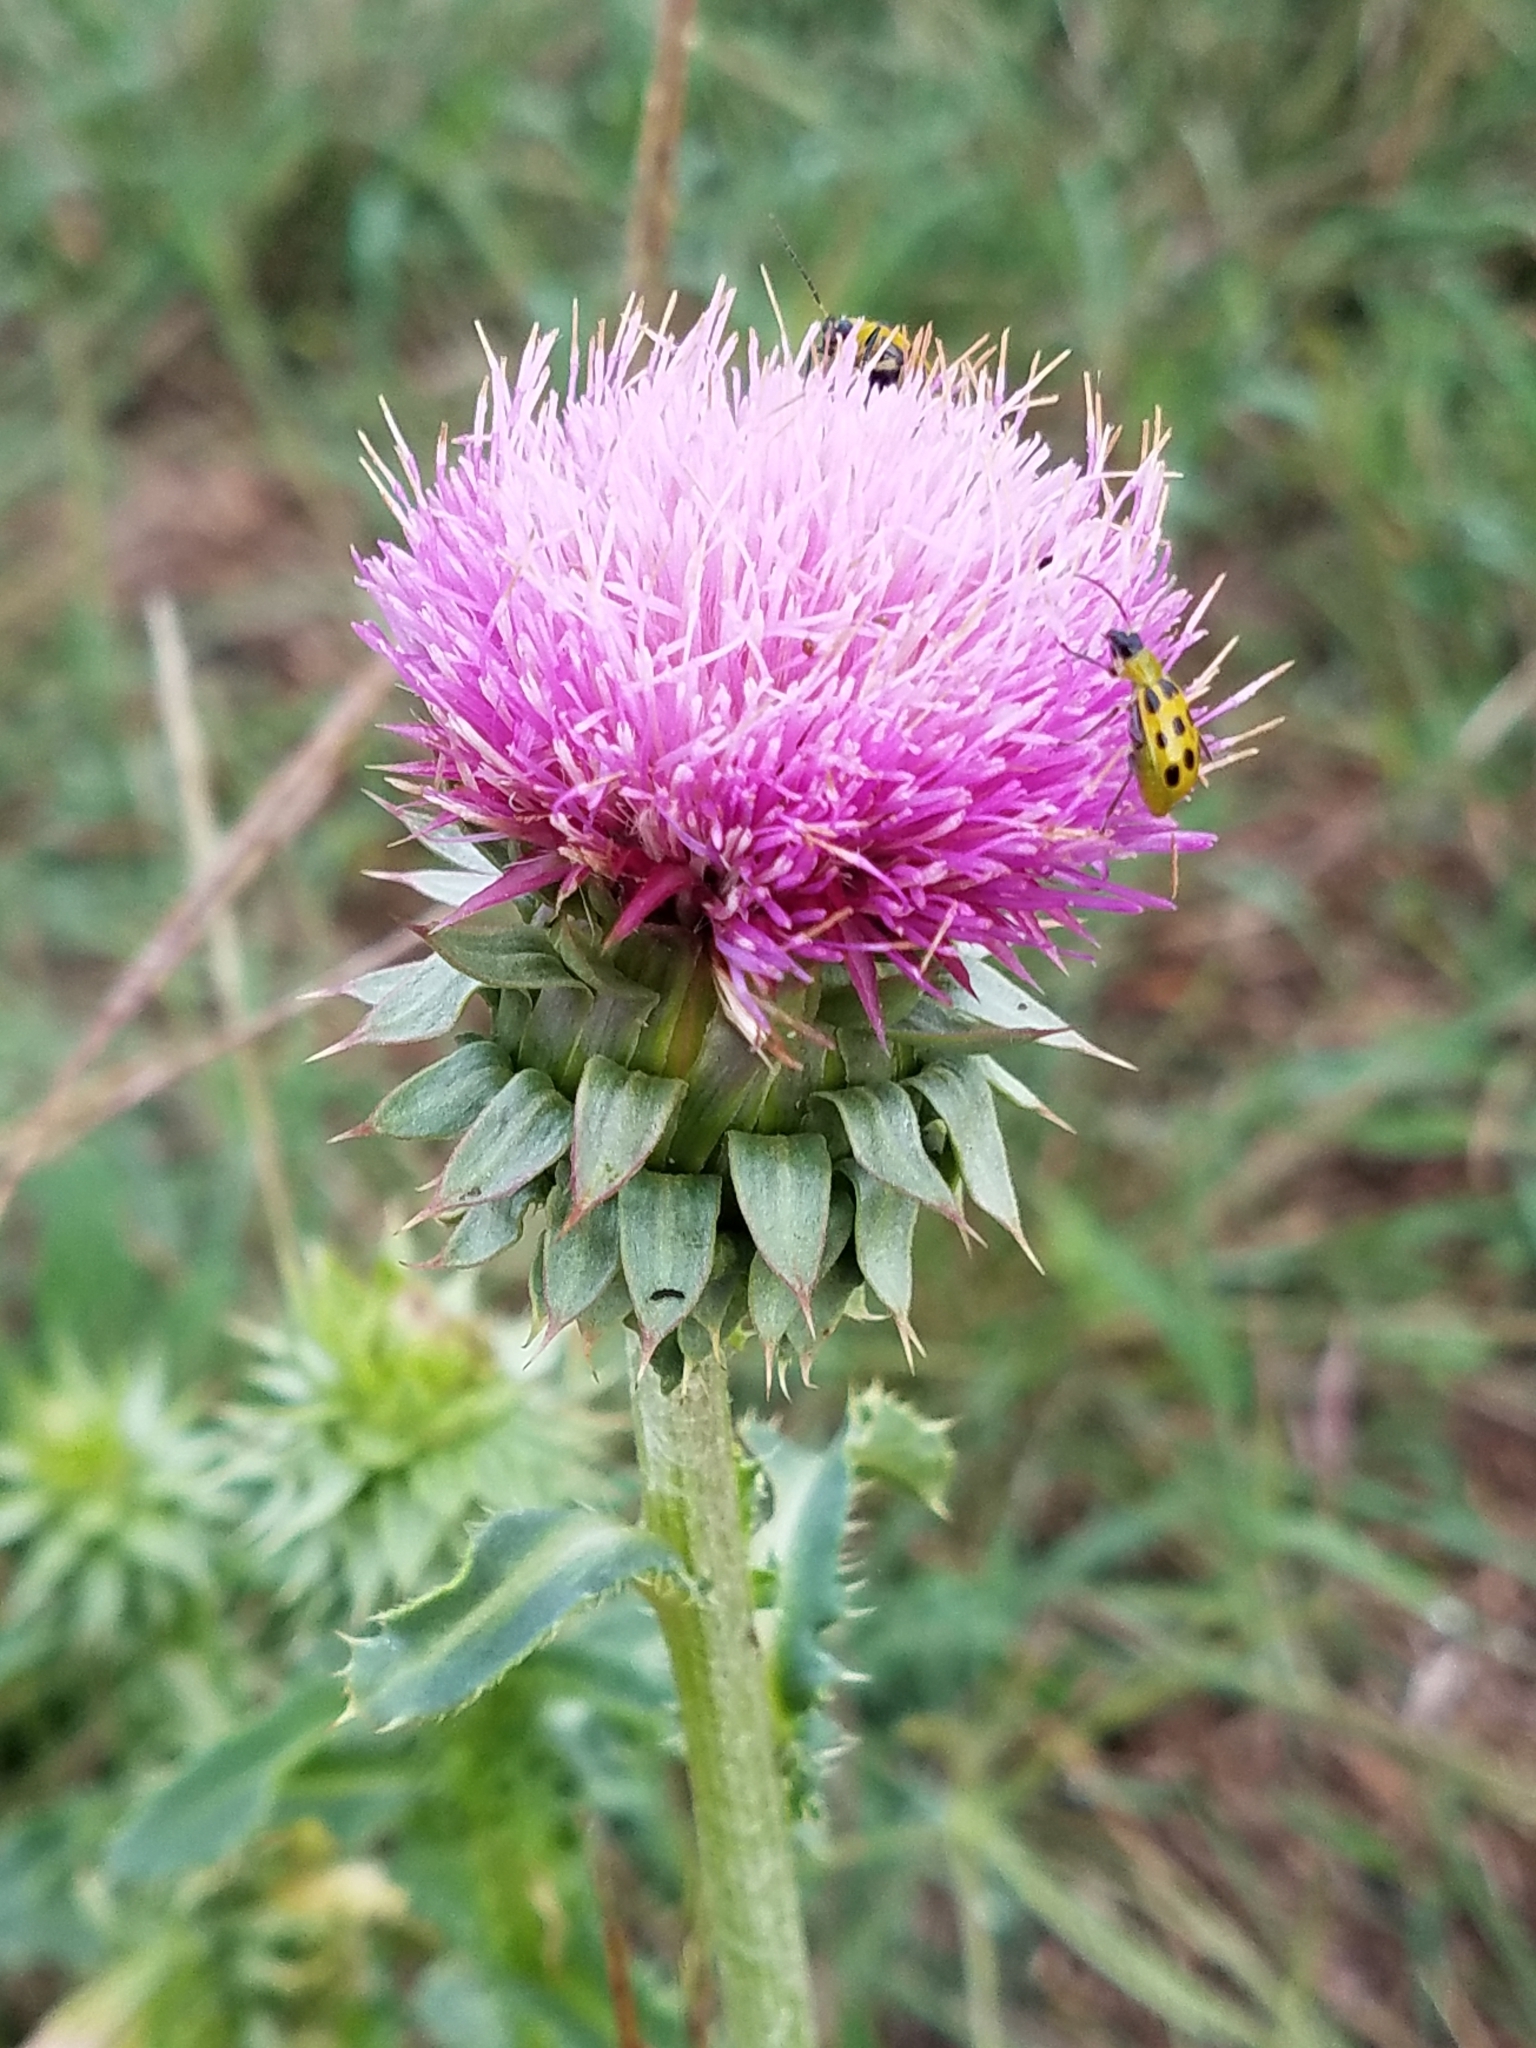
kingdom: Plantae
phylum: Tracheophyta
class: Magnoliopsida
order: Asterales
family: Asteraceae
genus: Carduus
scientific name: Carduus nutans
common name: Musk thistle
